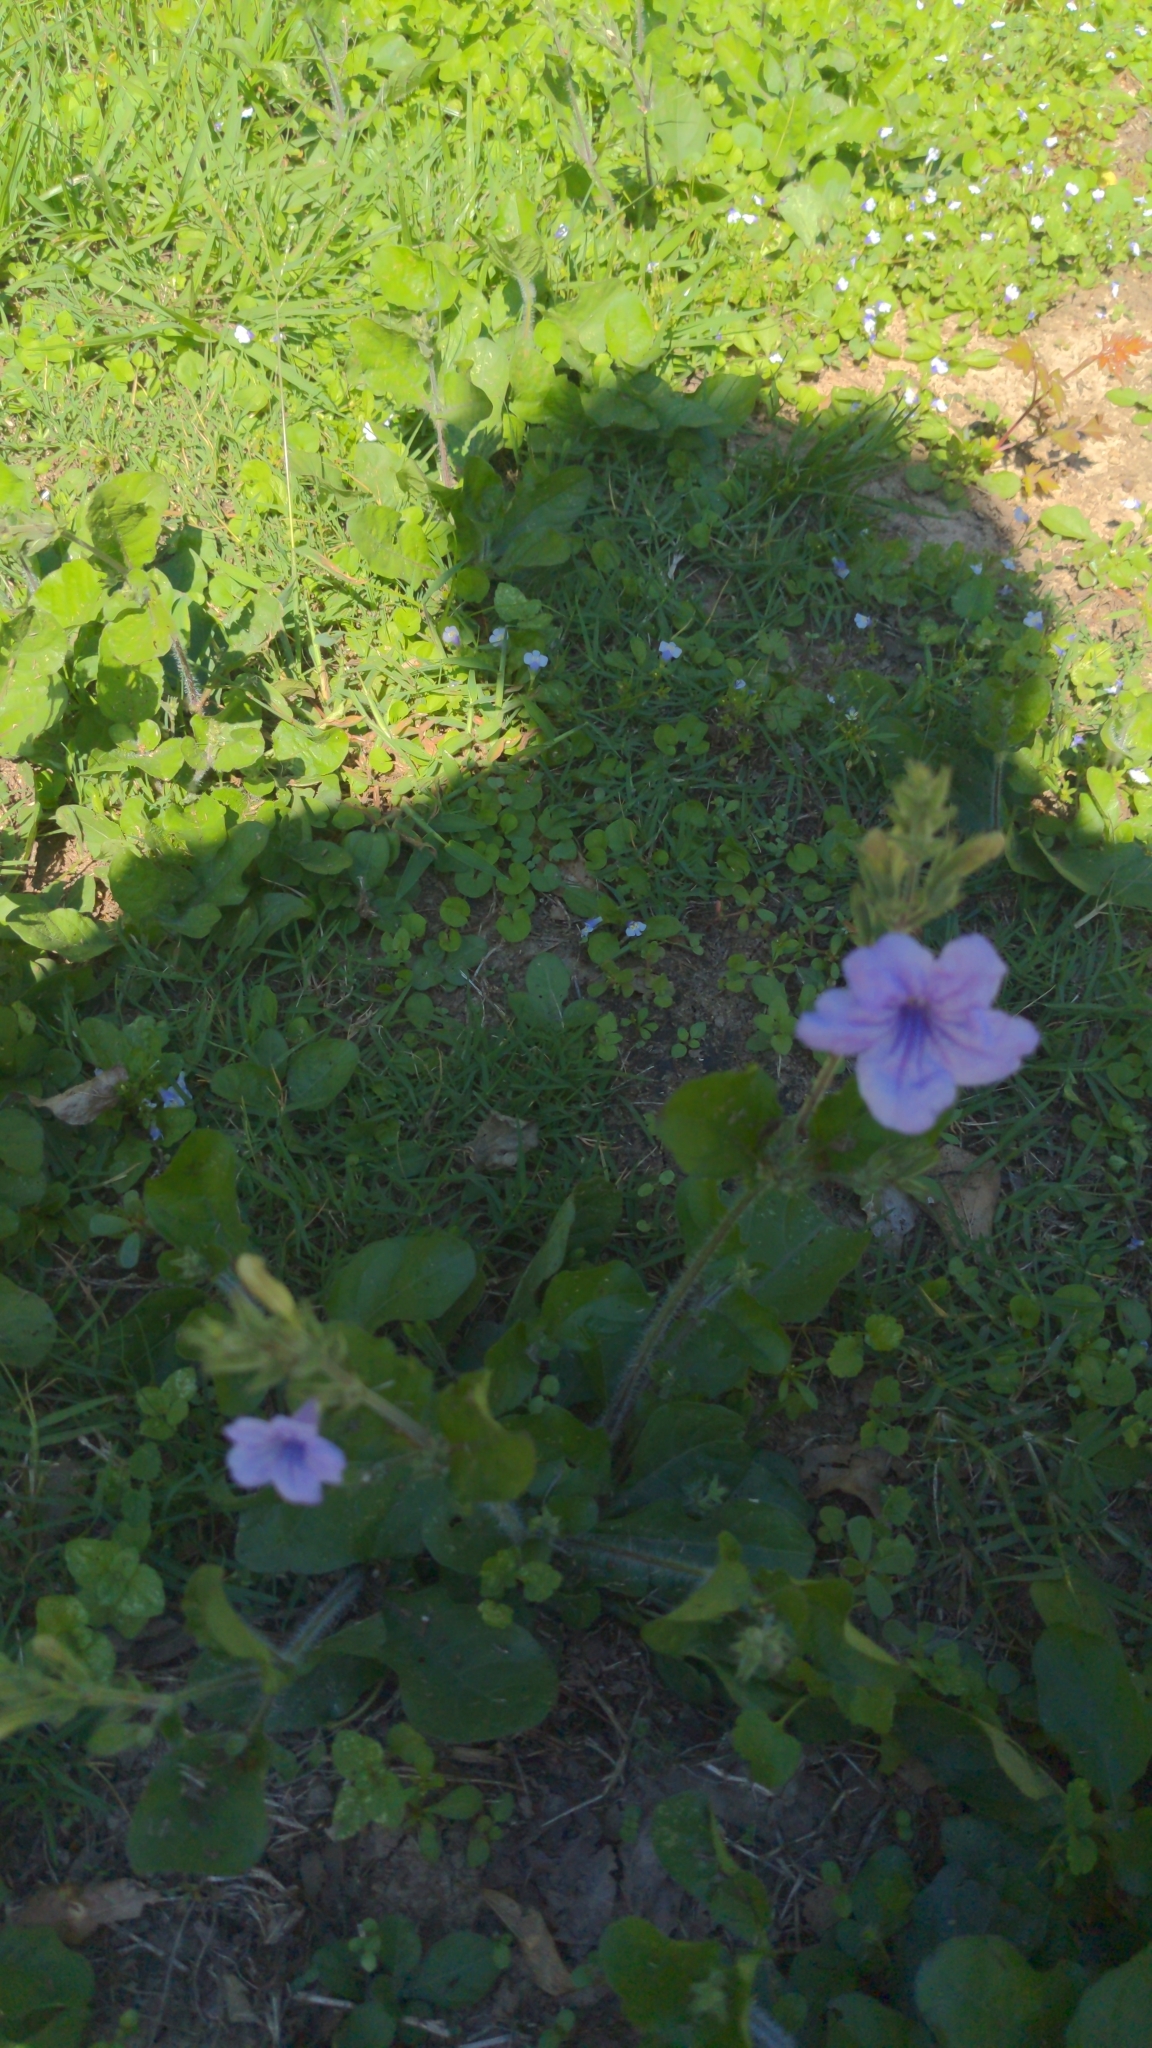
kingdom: Plantae
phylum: Tracheophyta
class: Magnoliopsida
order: Lamiales
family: Acanthaceae
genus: Ruellia
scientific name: Ruellia ciliatiflora
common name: Hairyflower wild petunia
